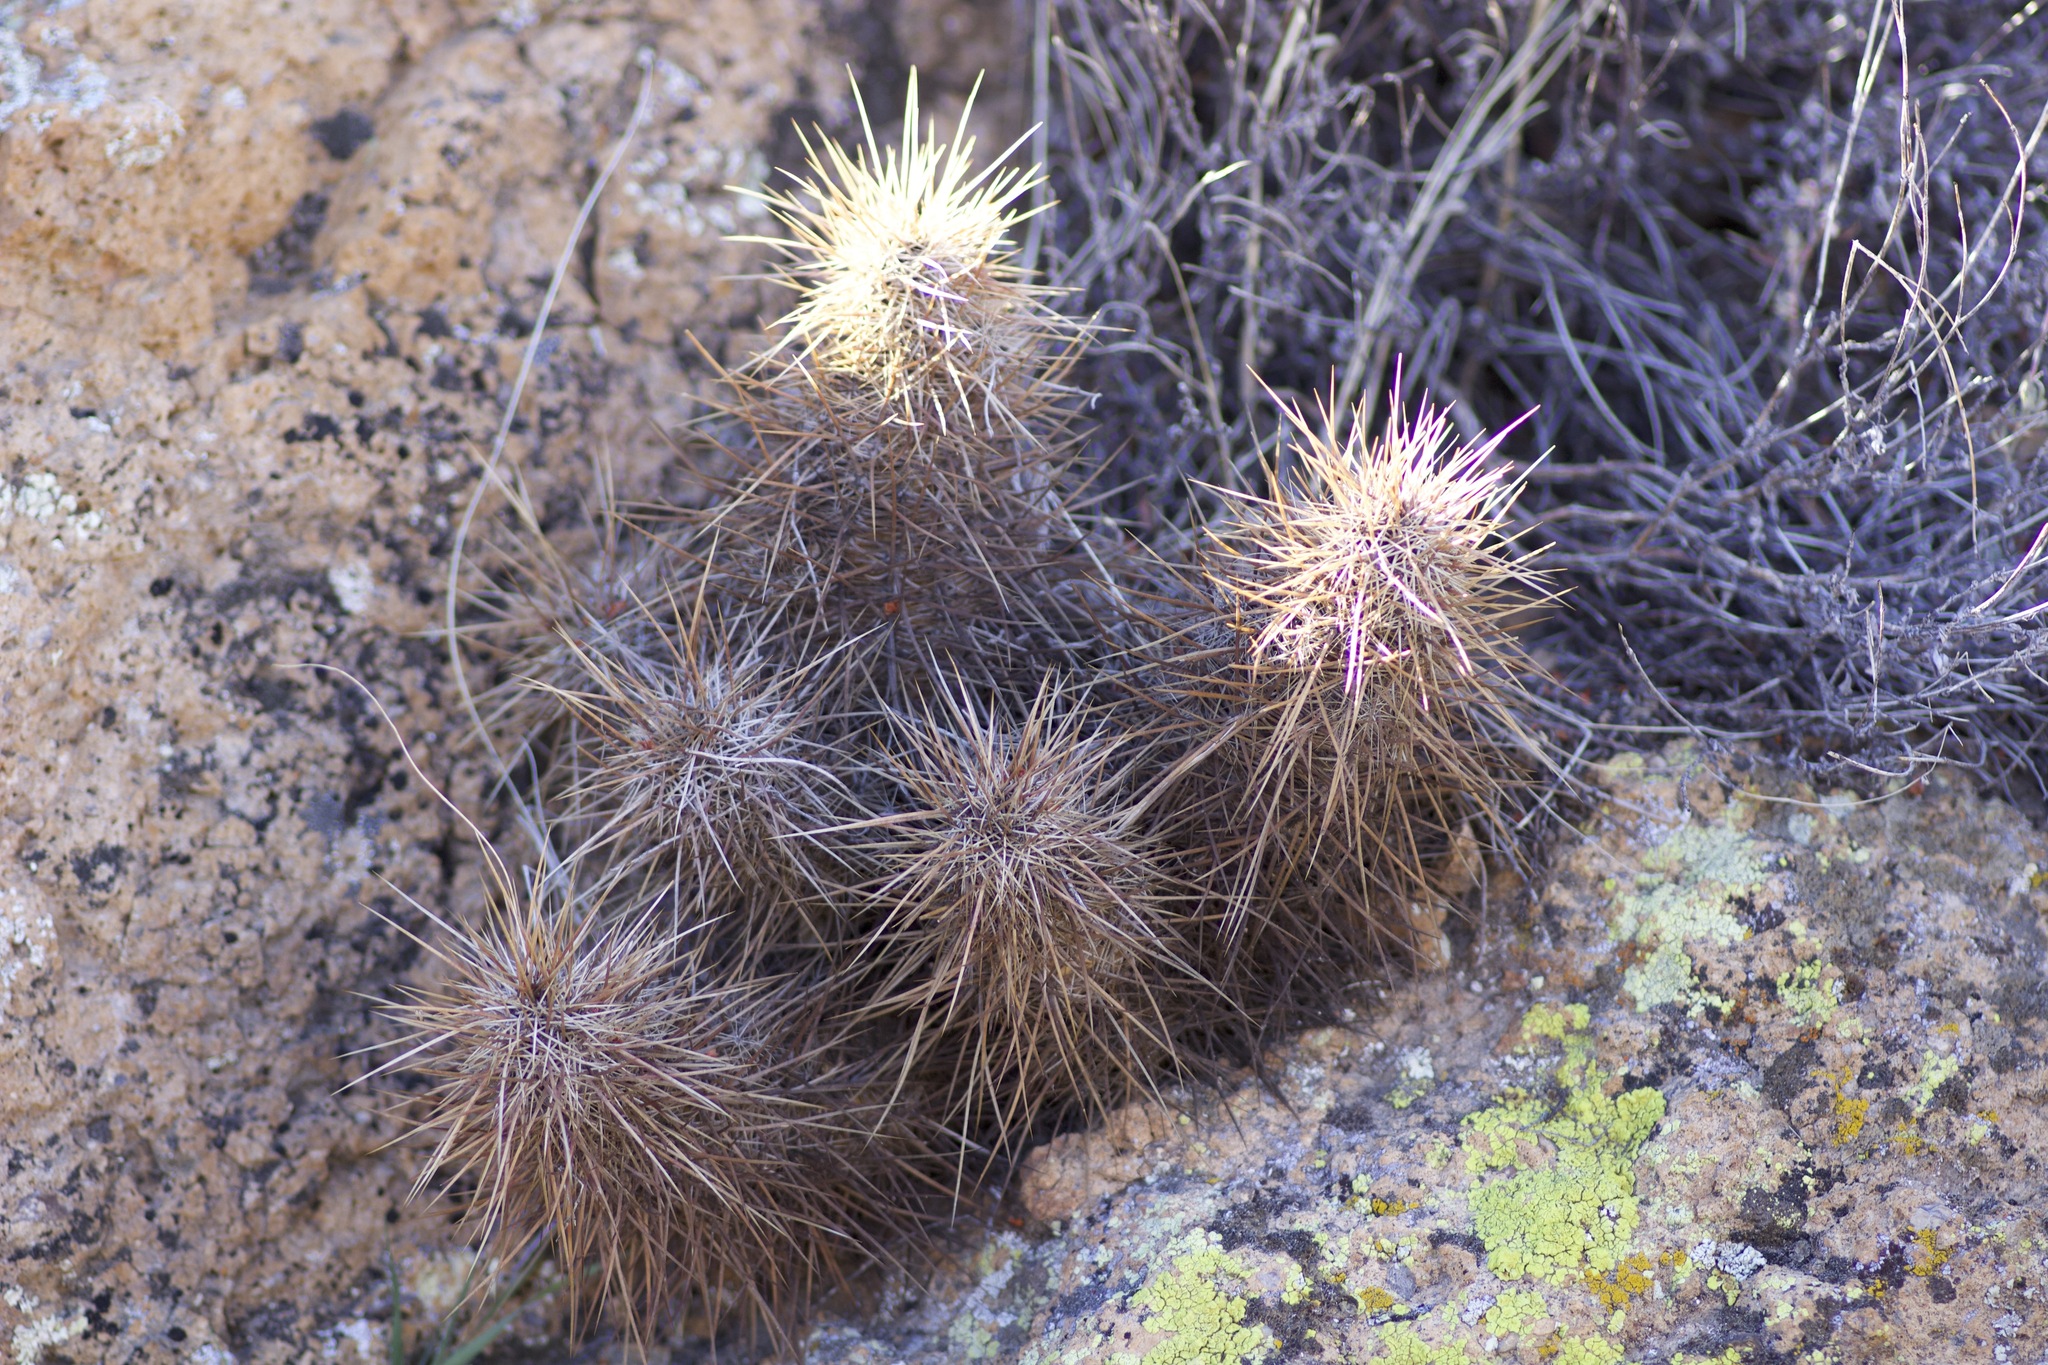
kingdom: Plantae
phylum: Tracheophyta
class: Magnoliopsida
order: Caryophyllales
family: Cactaceae
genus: Echinocereus
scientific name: Echinocereus engelmannii
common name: Engelmann's hedgehog cactus
